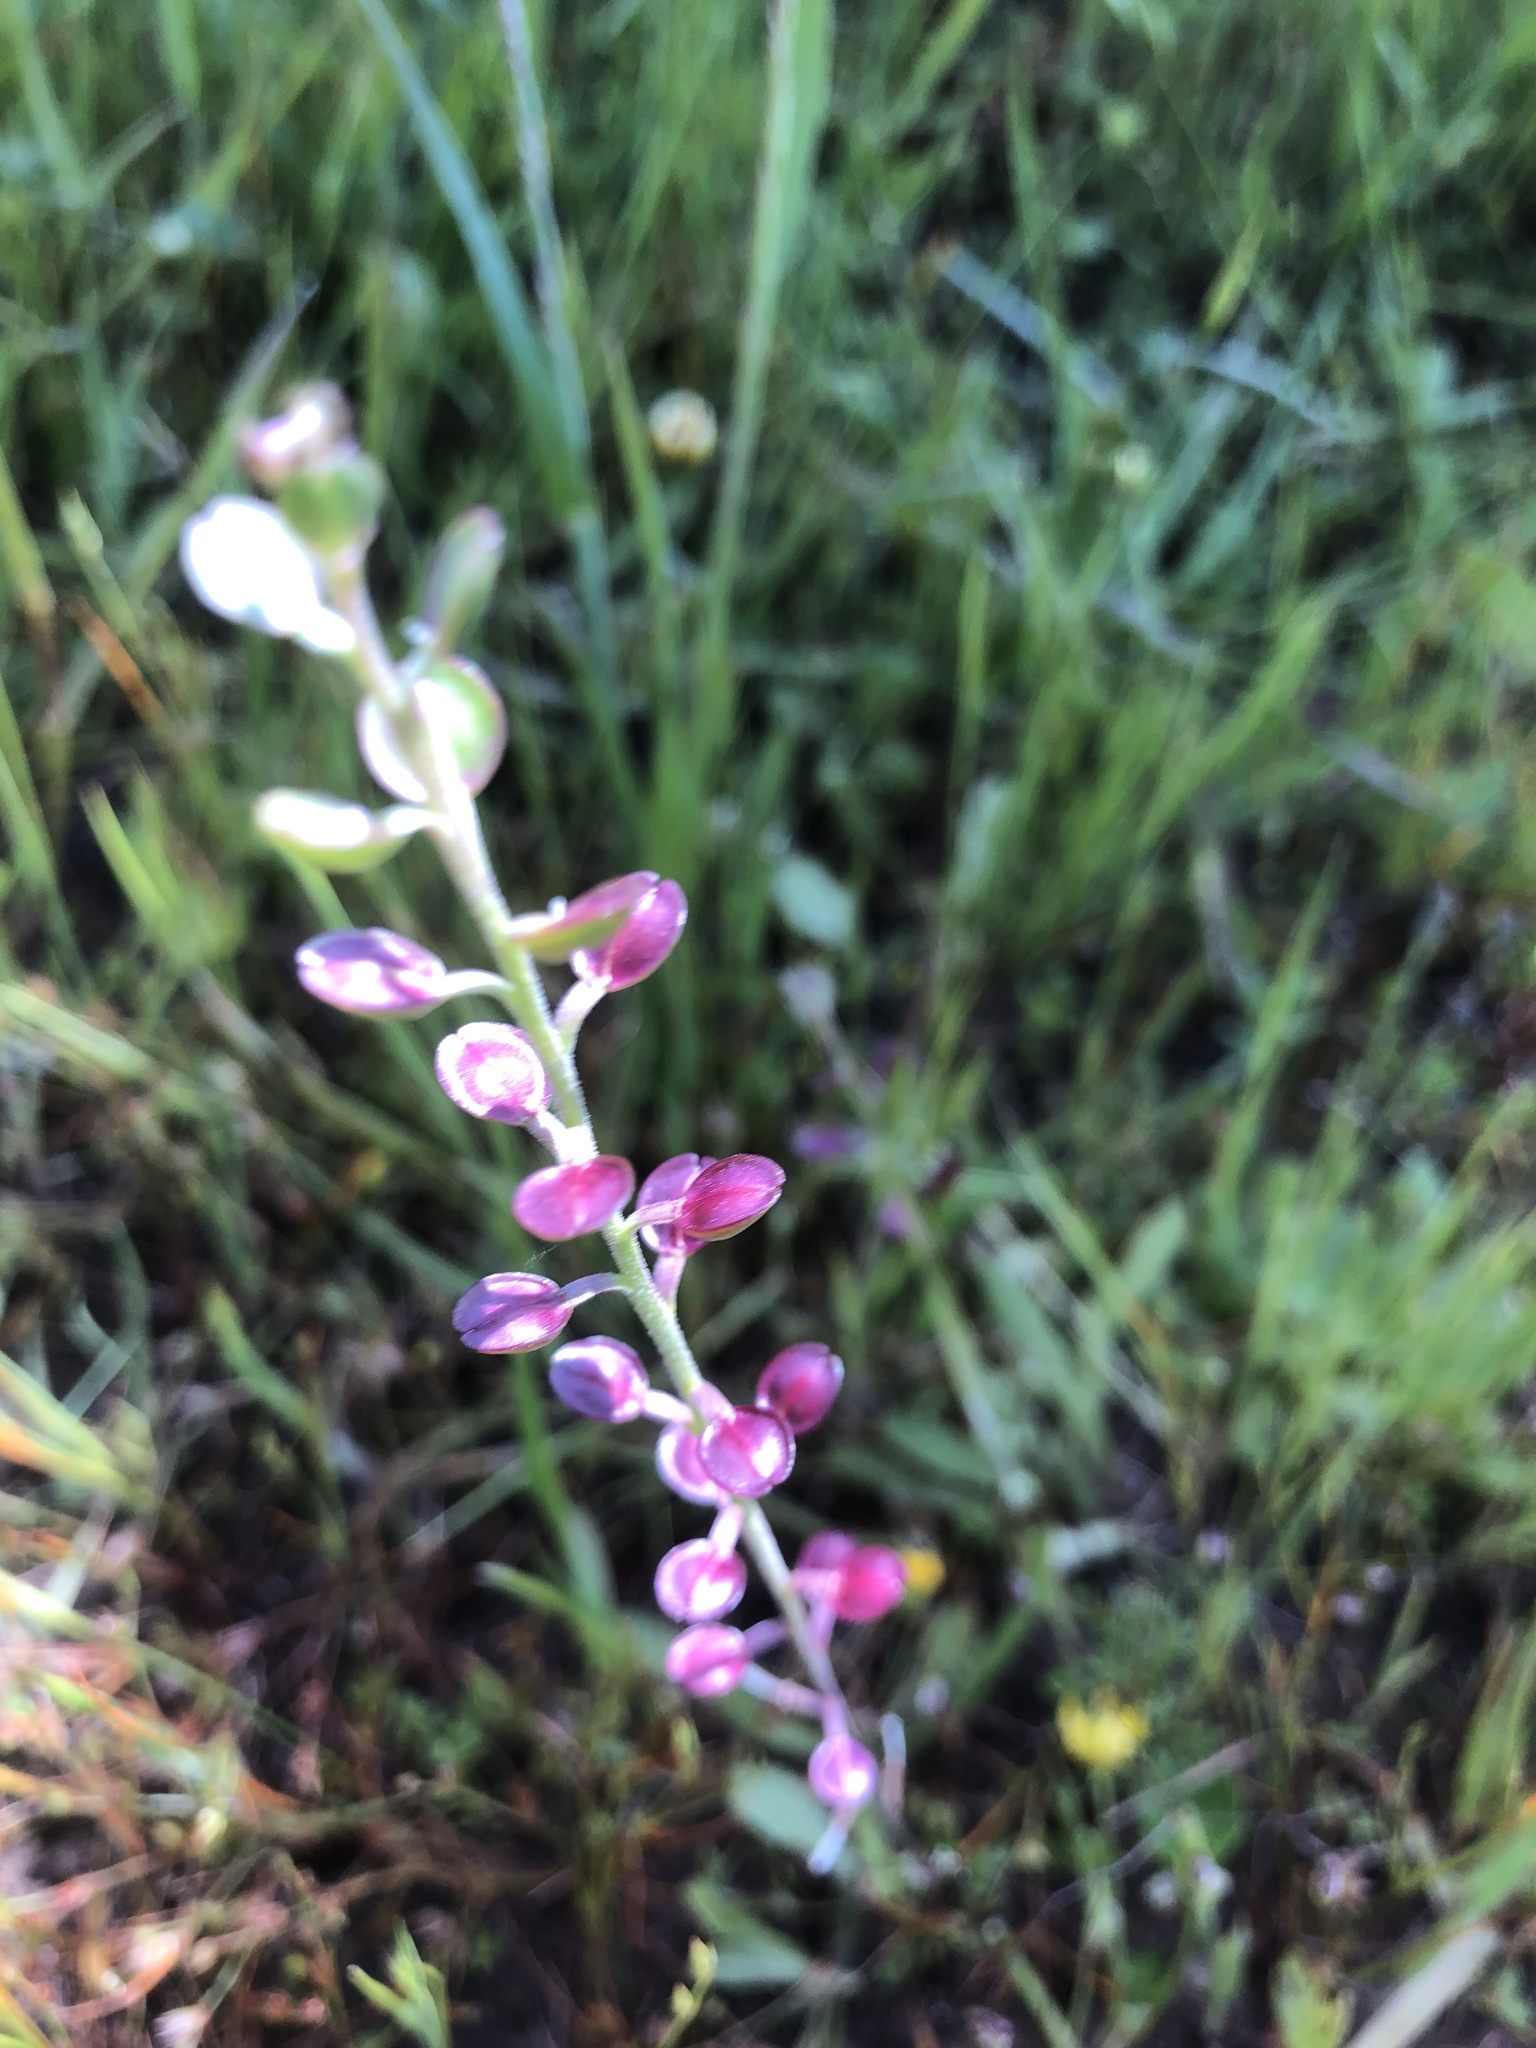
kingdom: Plantae
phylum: Tracheophyta
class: Magnoliopsida
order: Brassicales
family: Brassicaceae
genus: Lepidium
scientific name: Lepidium nitidum
